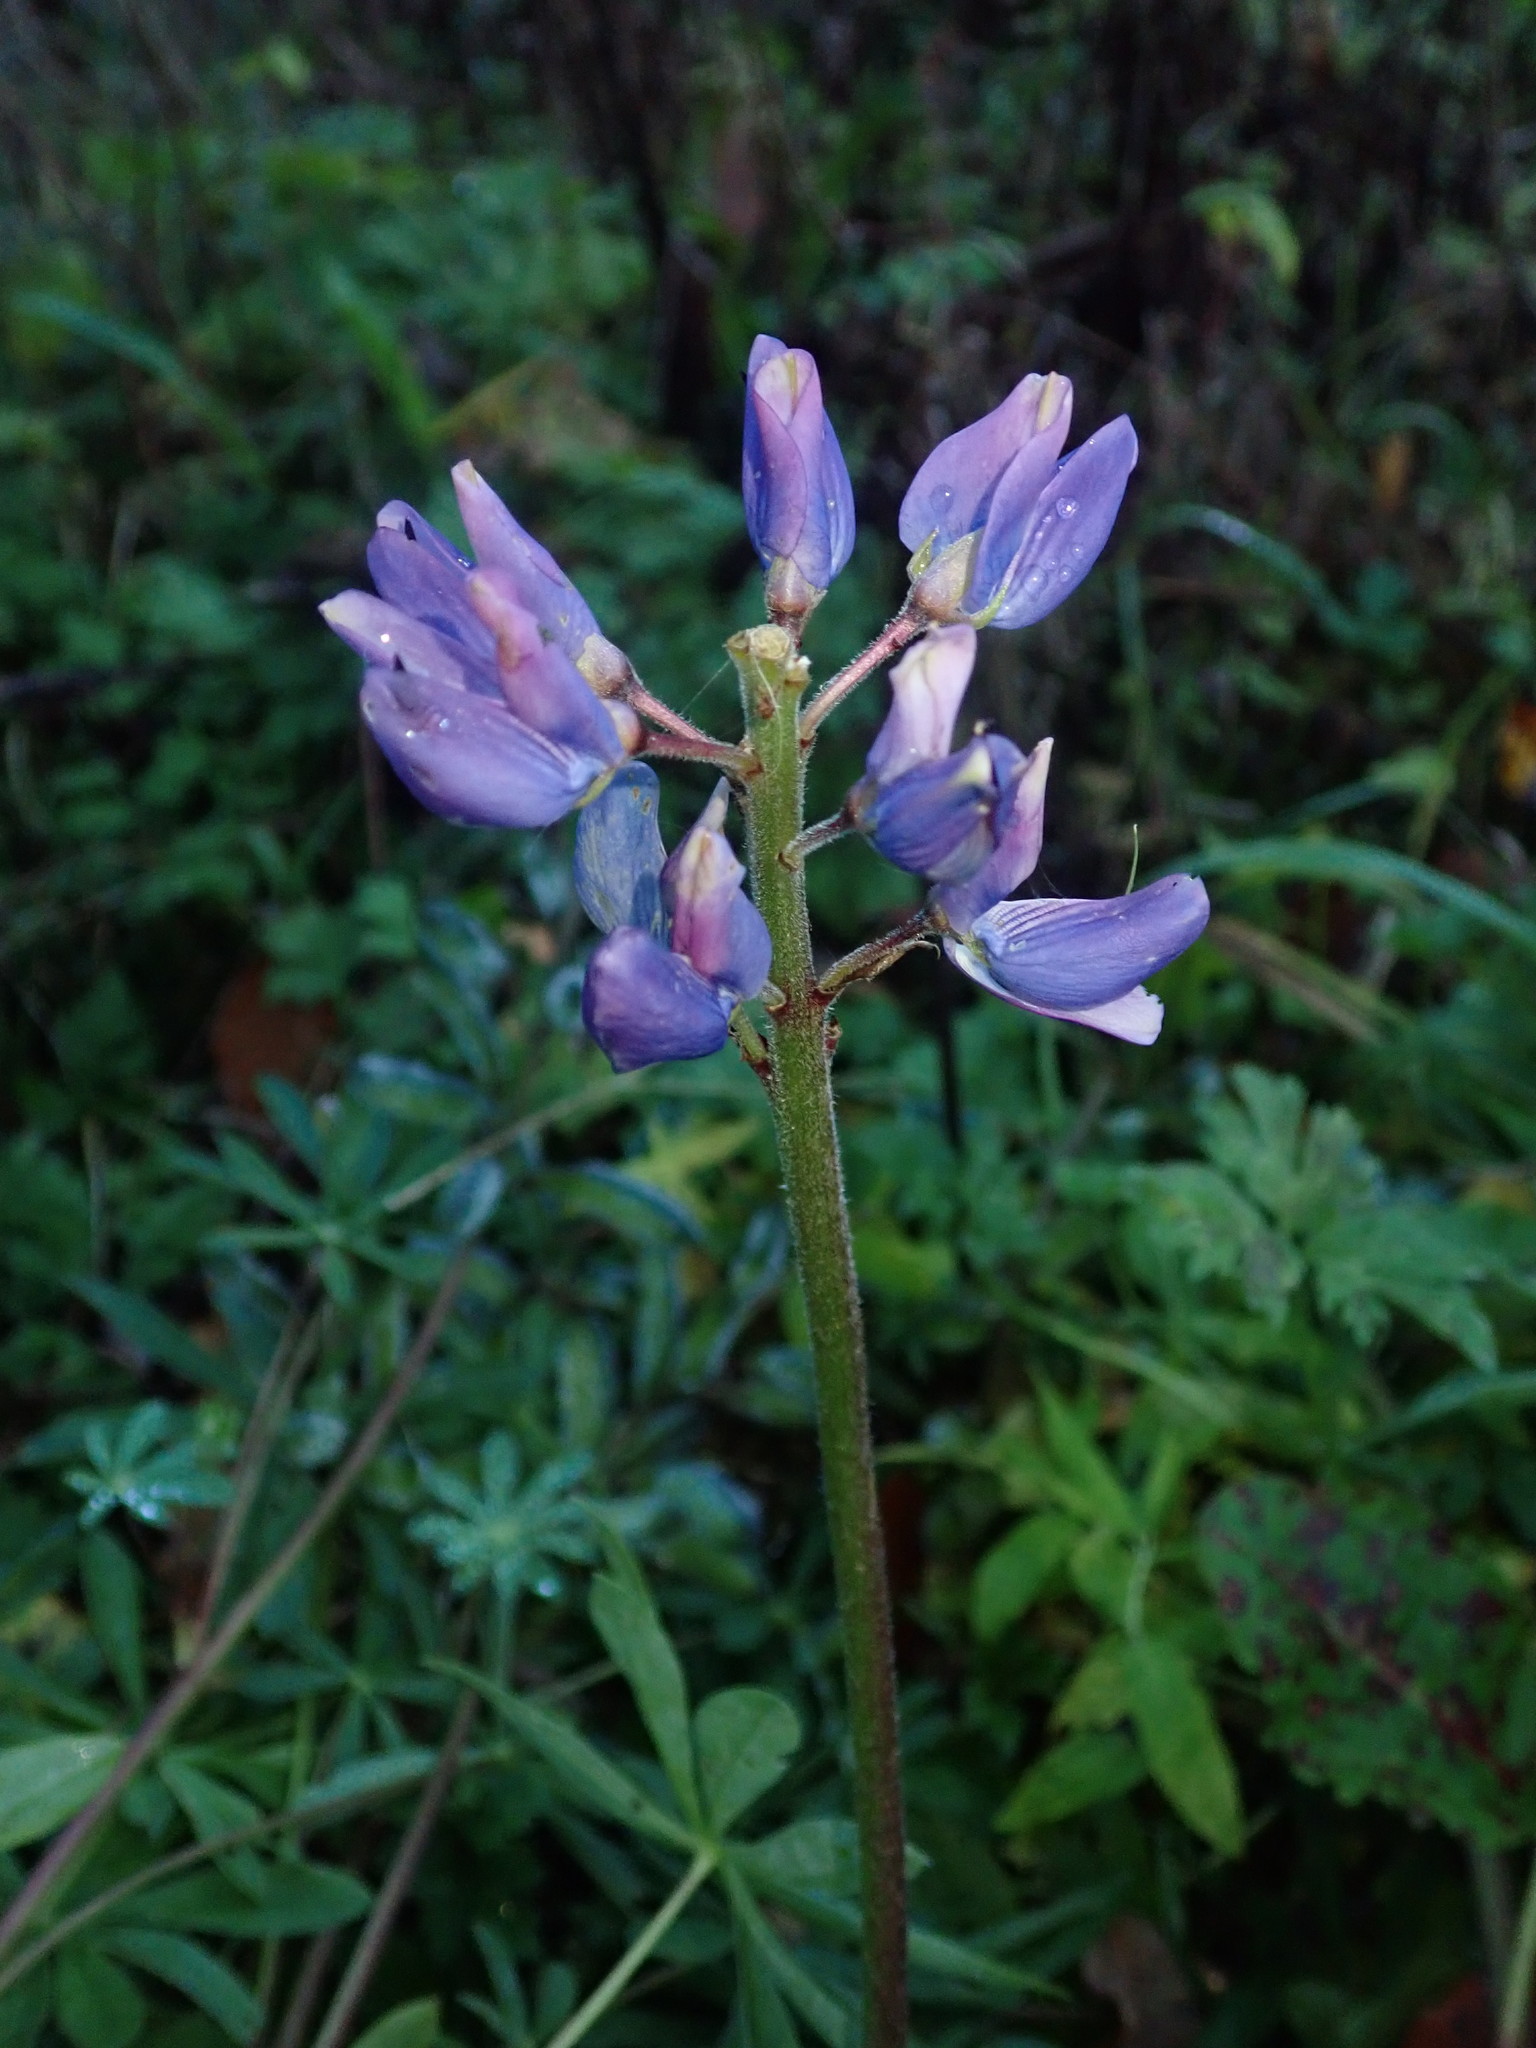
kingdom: Plantae
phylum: Tracheophyta
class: Magnoliopsida
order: Fabales
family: Fabaceae
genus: Lupinus
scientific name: Lupinus polyphyllus
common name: Garden lupin
